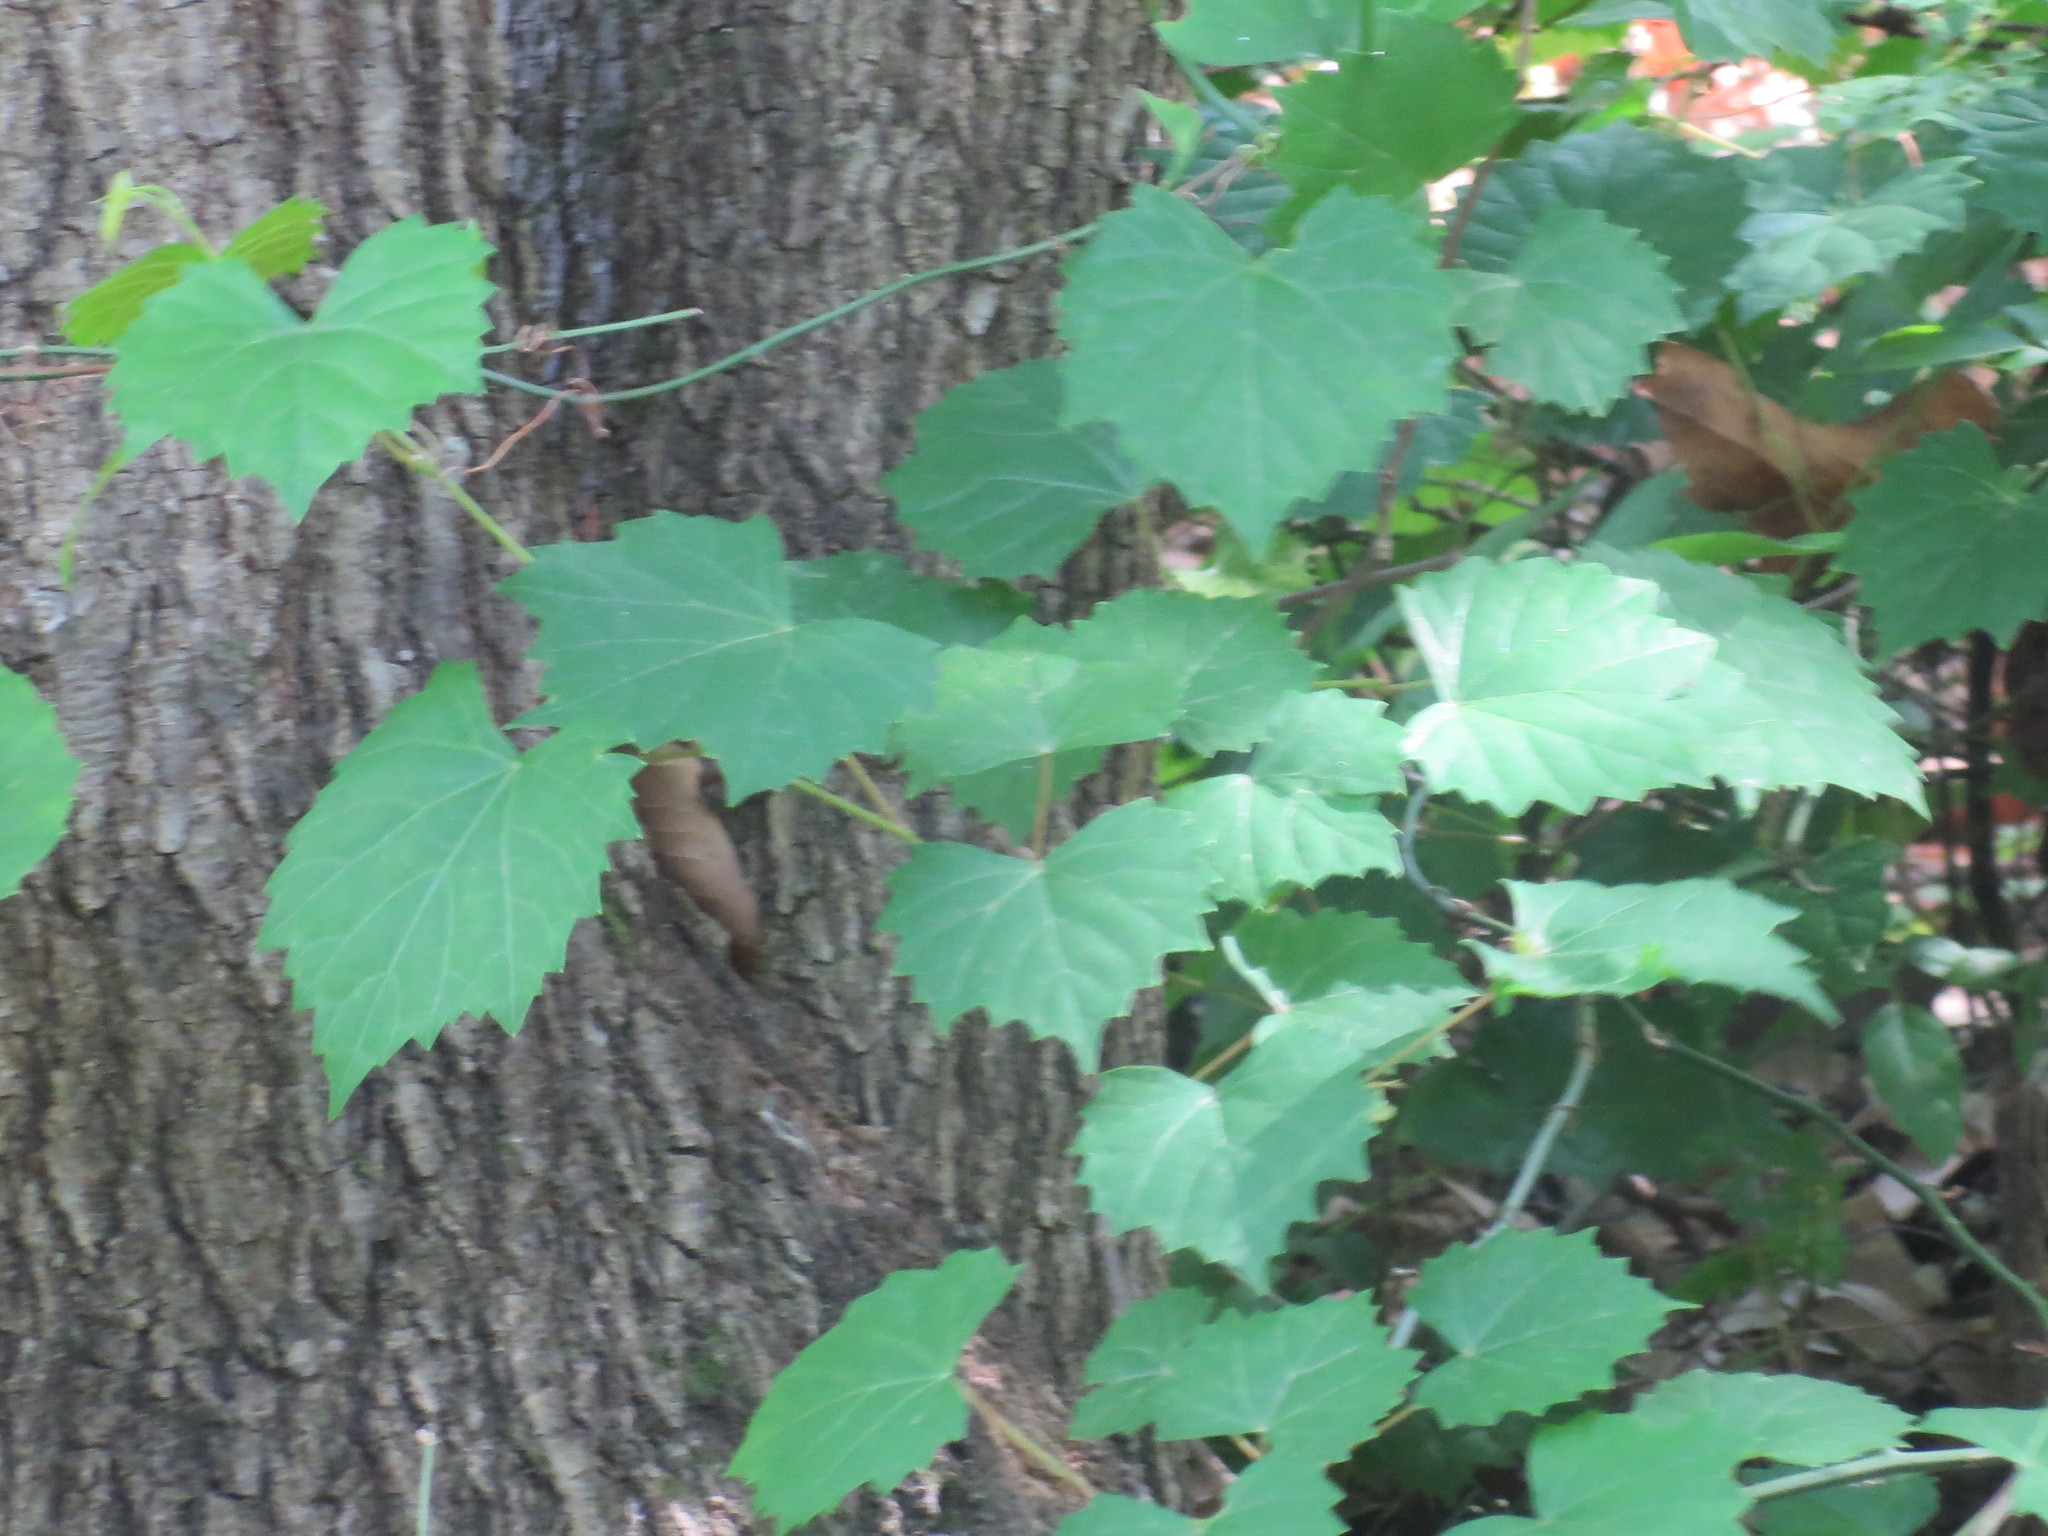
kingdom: Plantae
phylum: Tracheophyta
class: Magnoliopsida
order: Vitales
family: Vitaceae
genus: Vitis
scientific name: Vitis rotundifolia
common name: Muscadine grape
